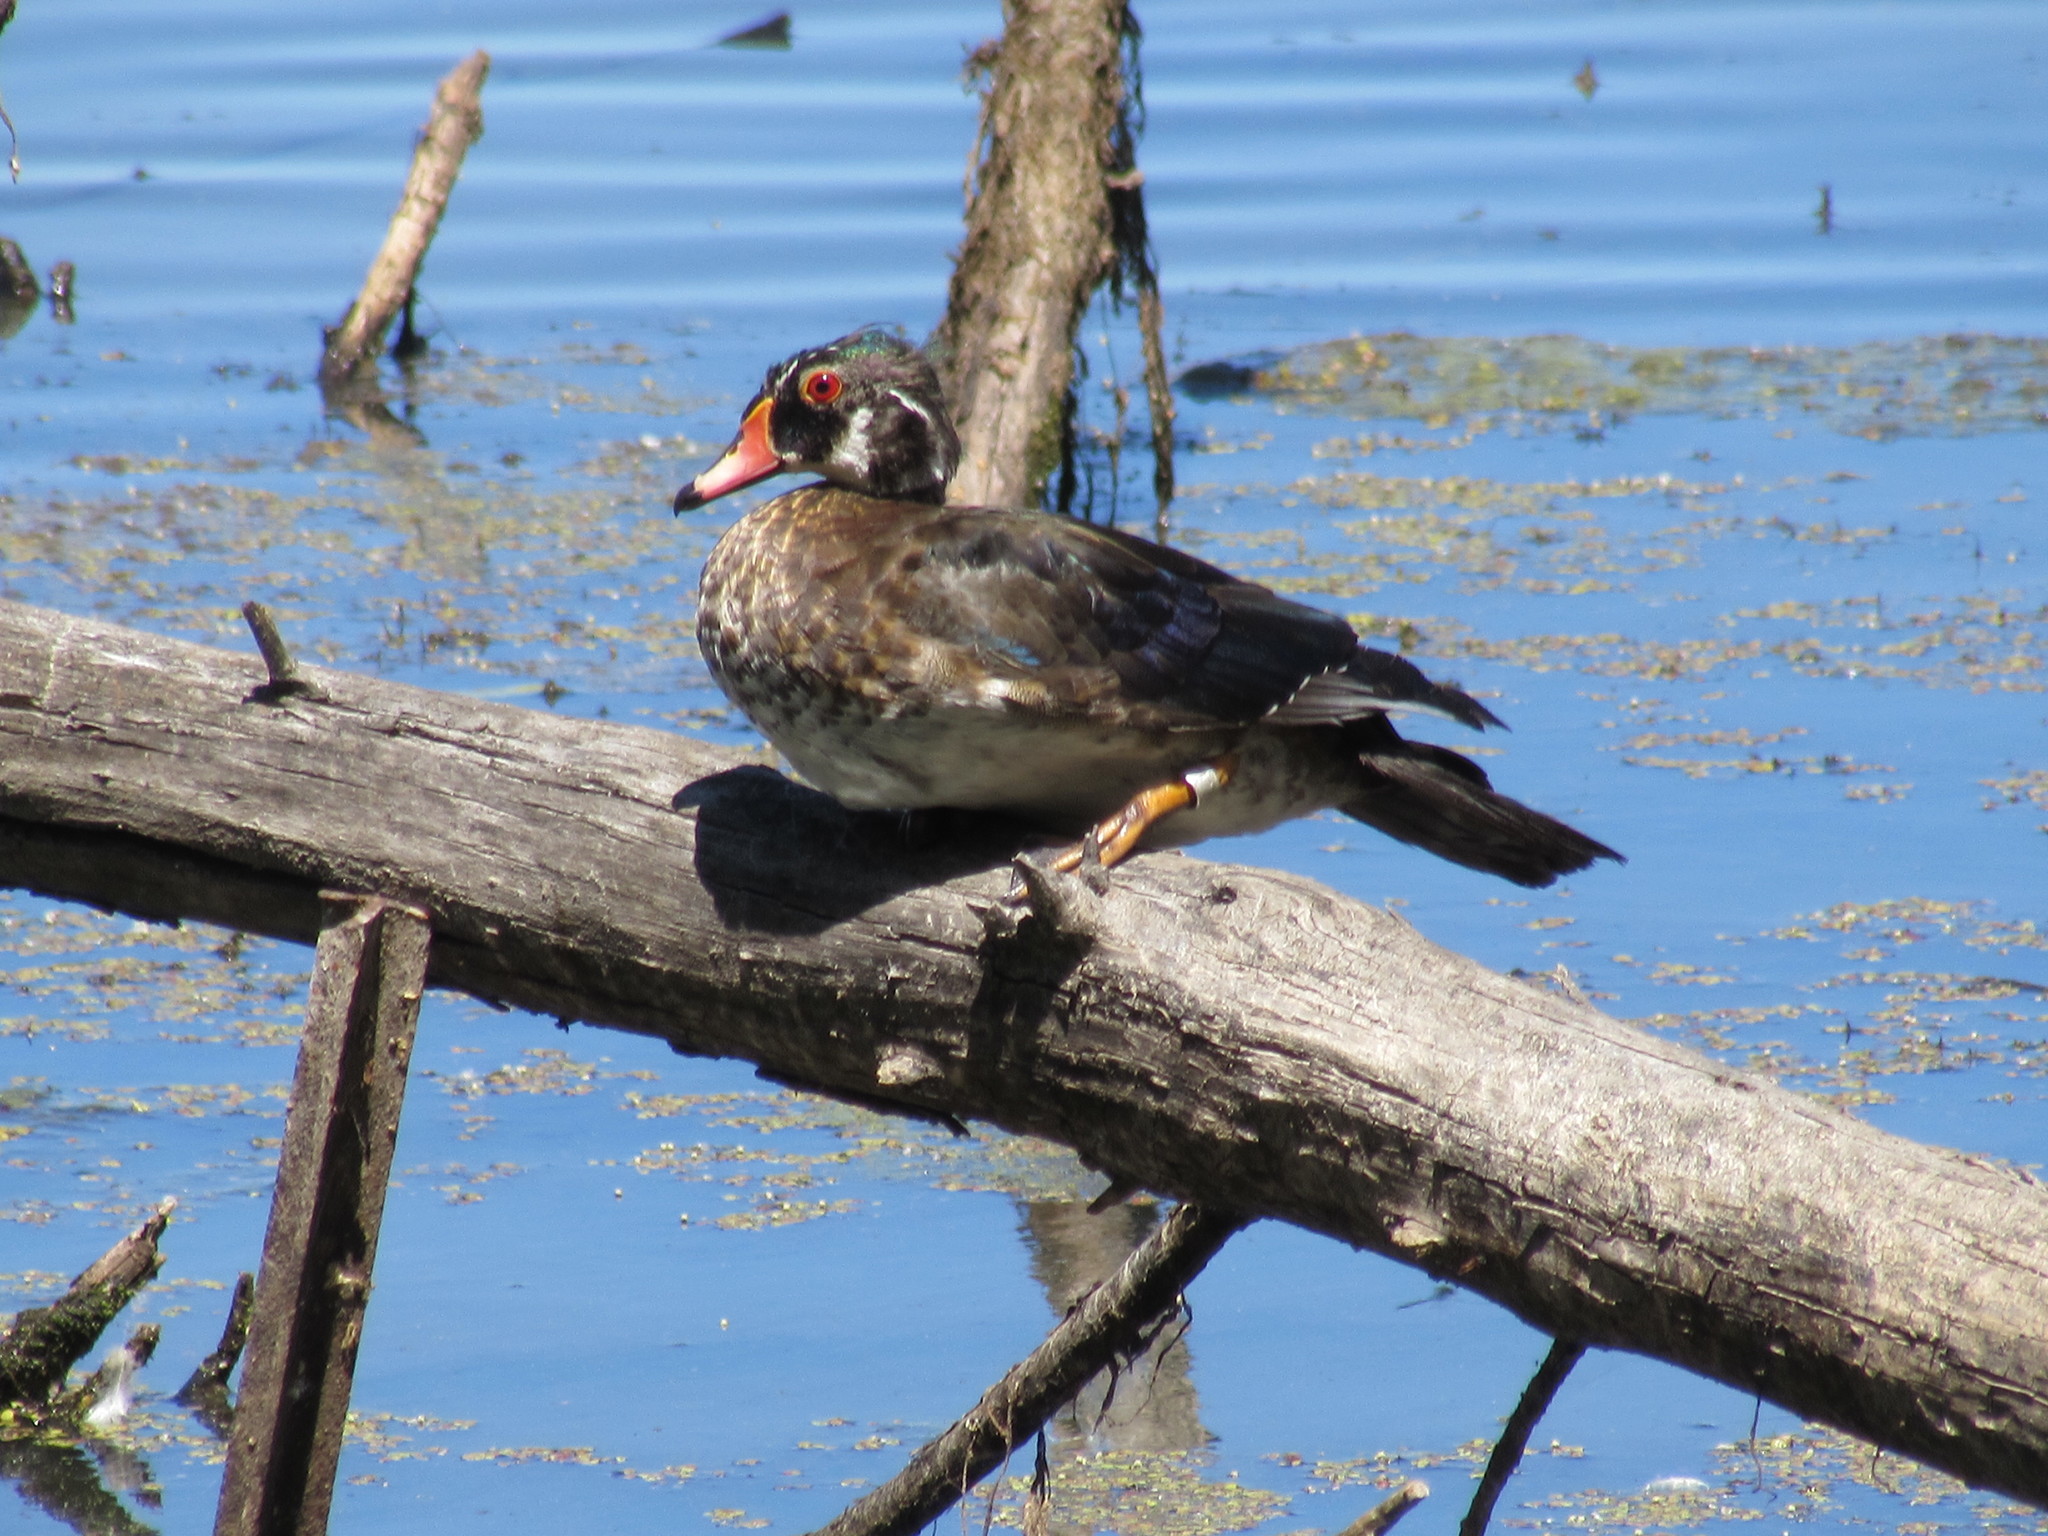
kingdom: Animalia
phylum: Chordata
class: Aves
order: Anseriformes
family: Anatidae
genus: Aix
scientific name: Aix sponsa
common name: Wood duck
